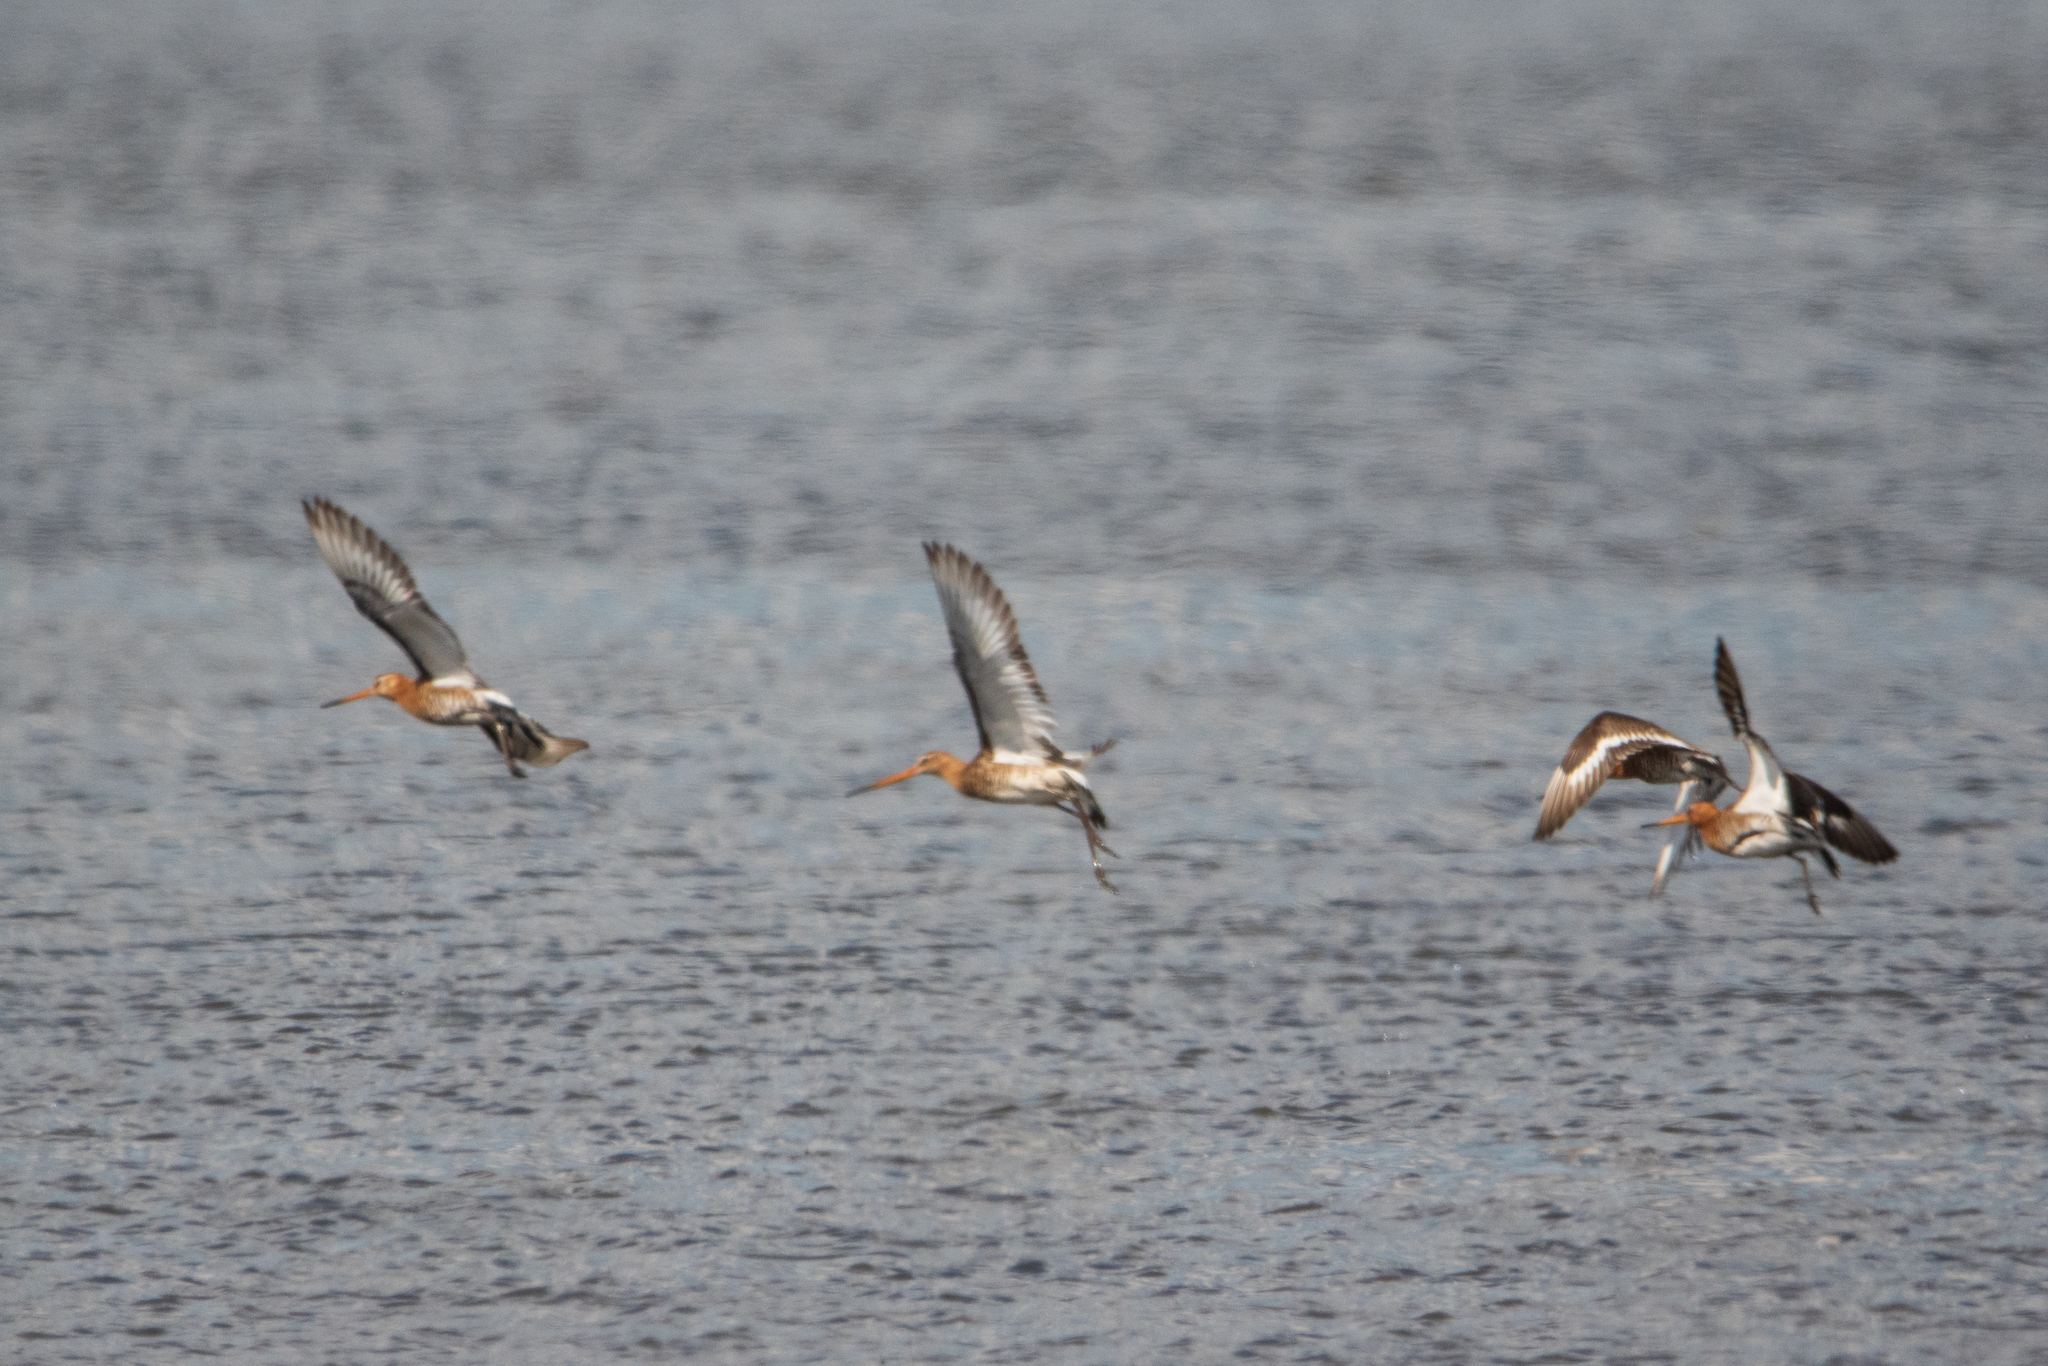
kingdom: Animalia
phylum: Chordata
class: Aves
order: Charadriiformes
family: Scolopacidae
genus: Limosa
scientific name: Limosa limosa
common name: Black-tailed godwit
